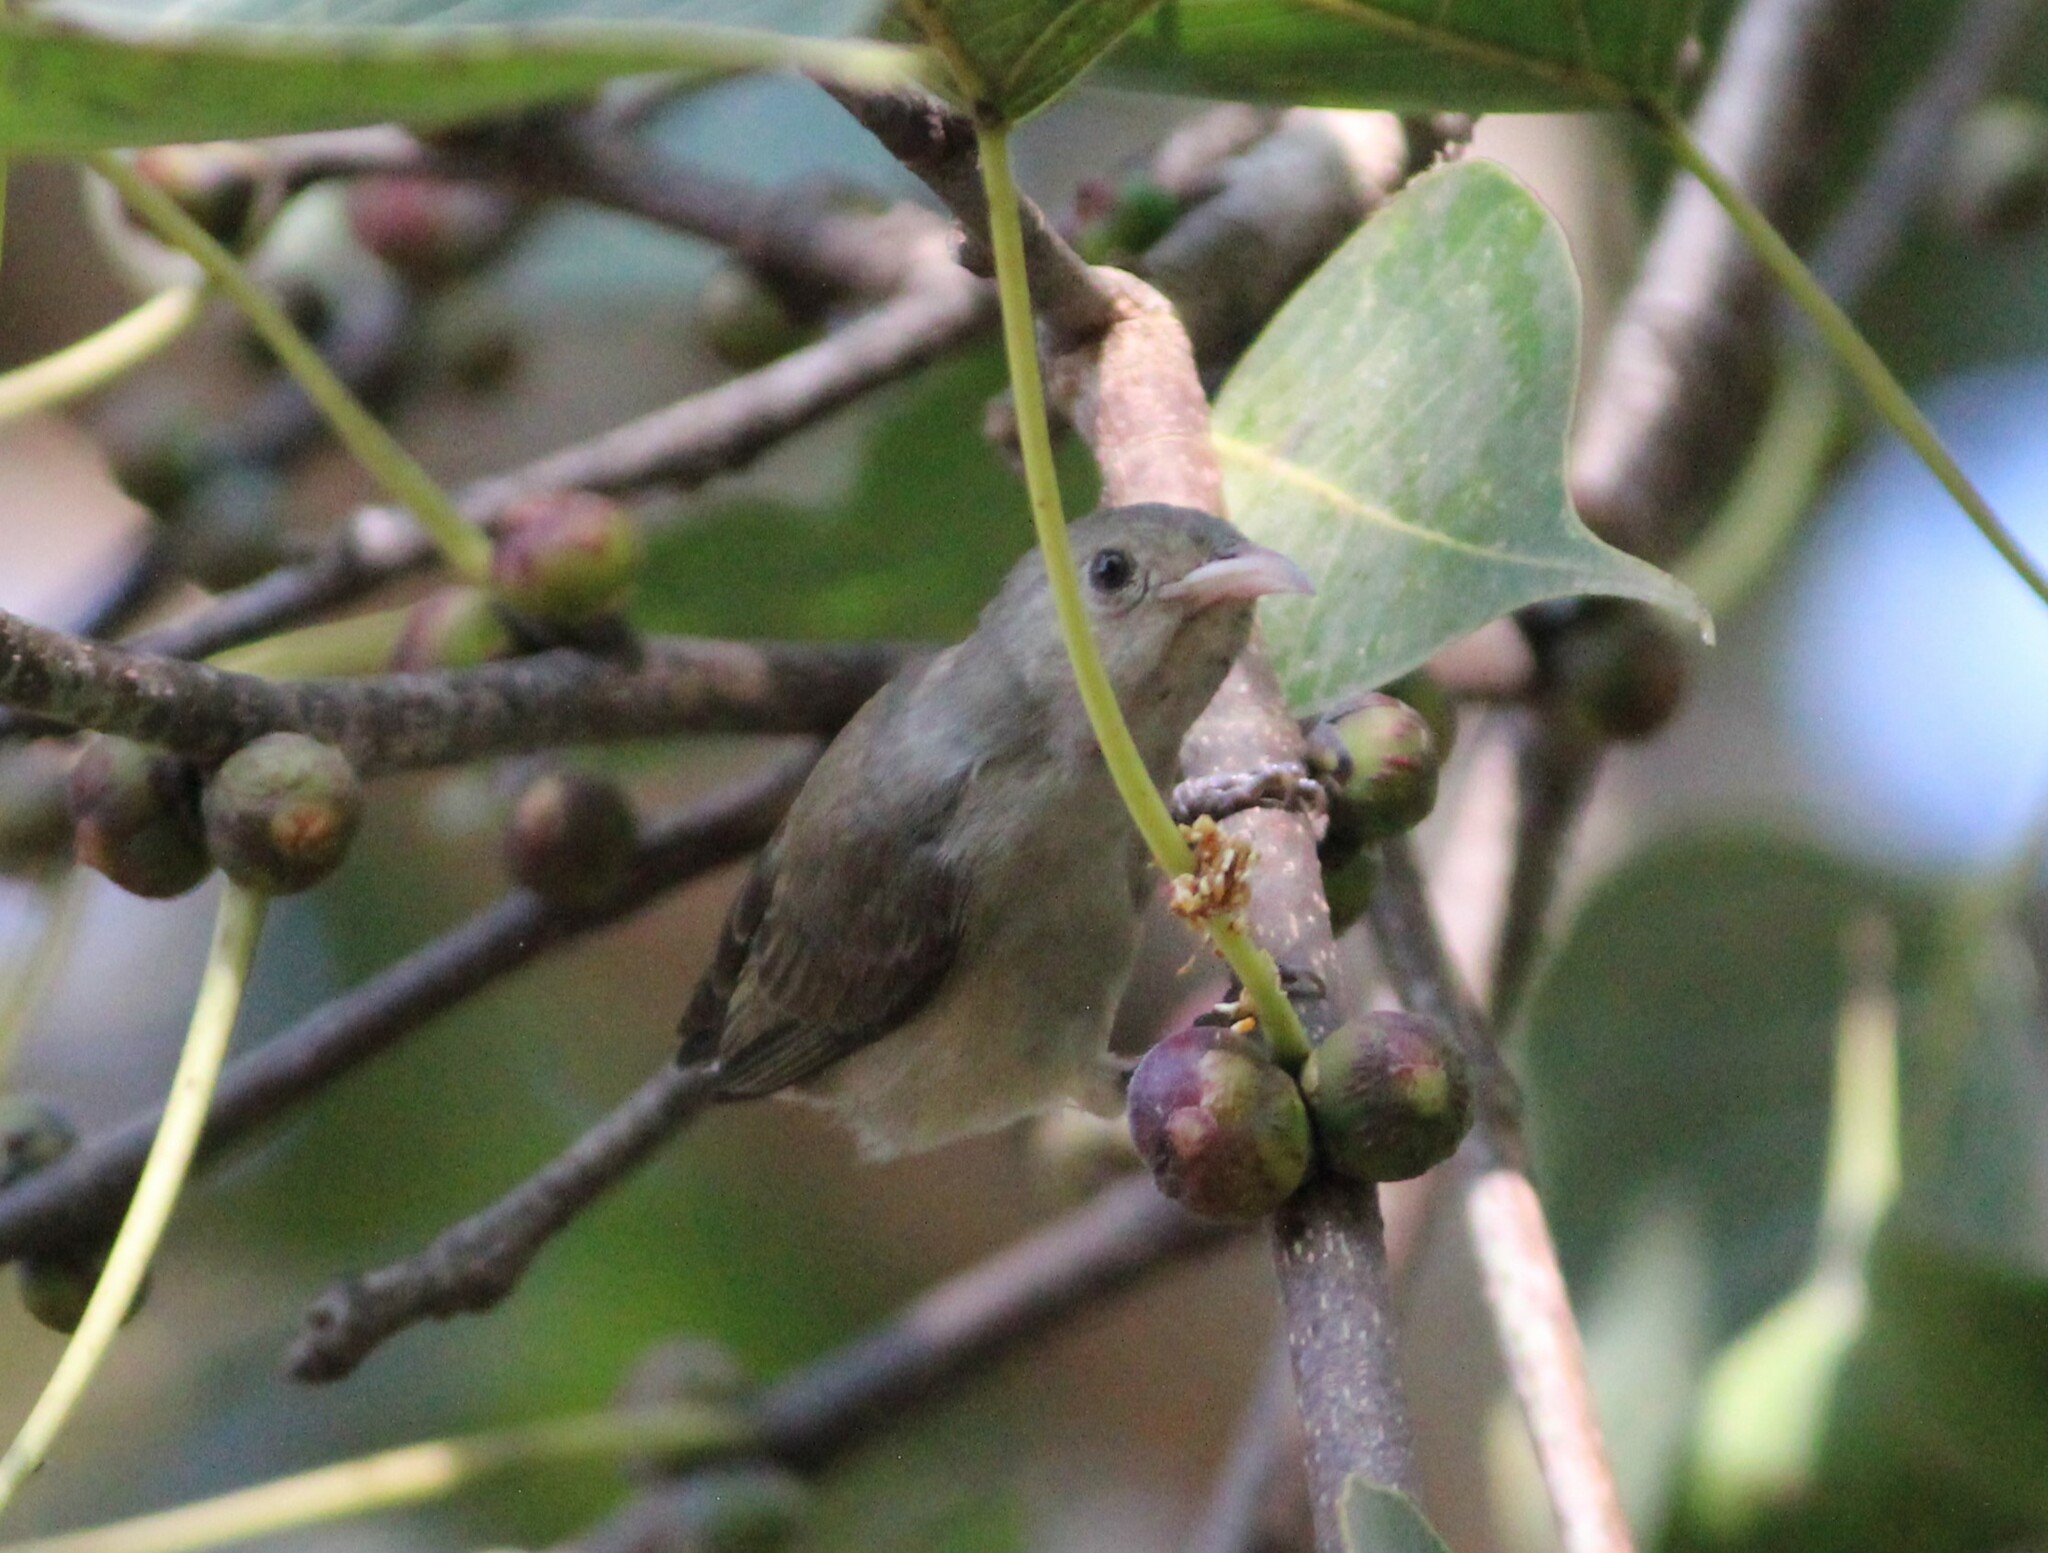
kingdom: Animalia
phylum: Chordata
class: Aves
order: Passeriformes
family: Dicaeidae
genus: Dicaeum
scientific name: Dicaeum erythrorhynchos
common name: Pale-billed flowerpecker
